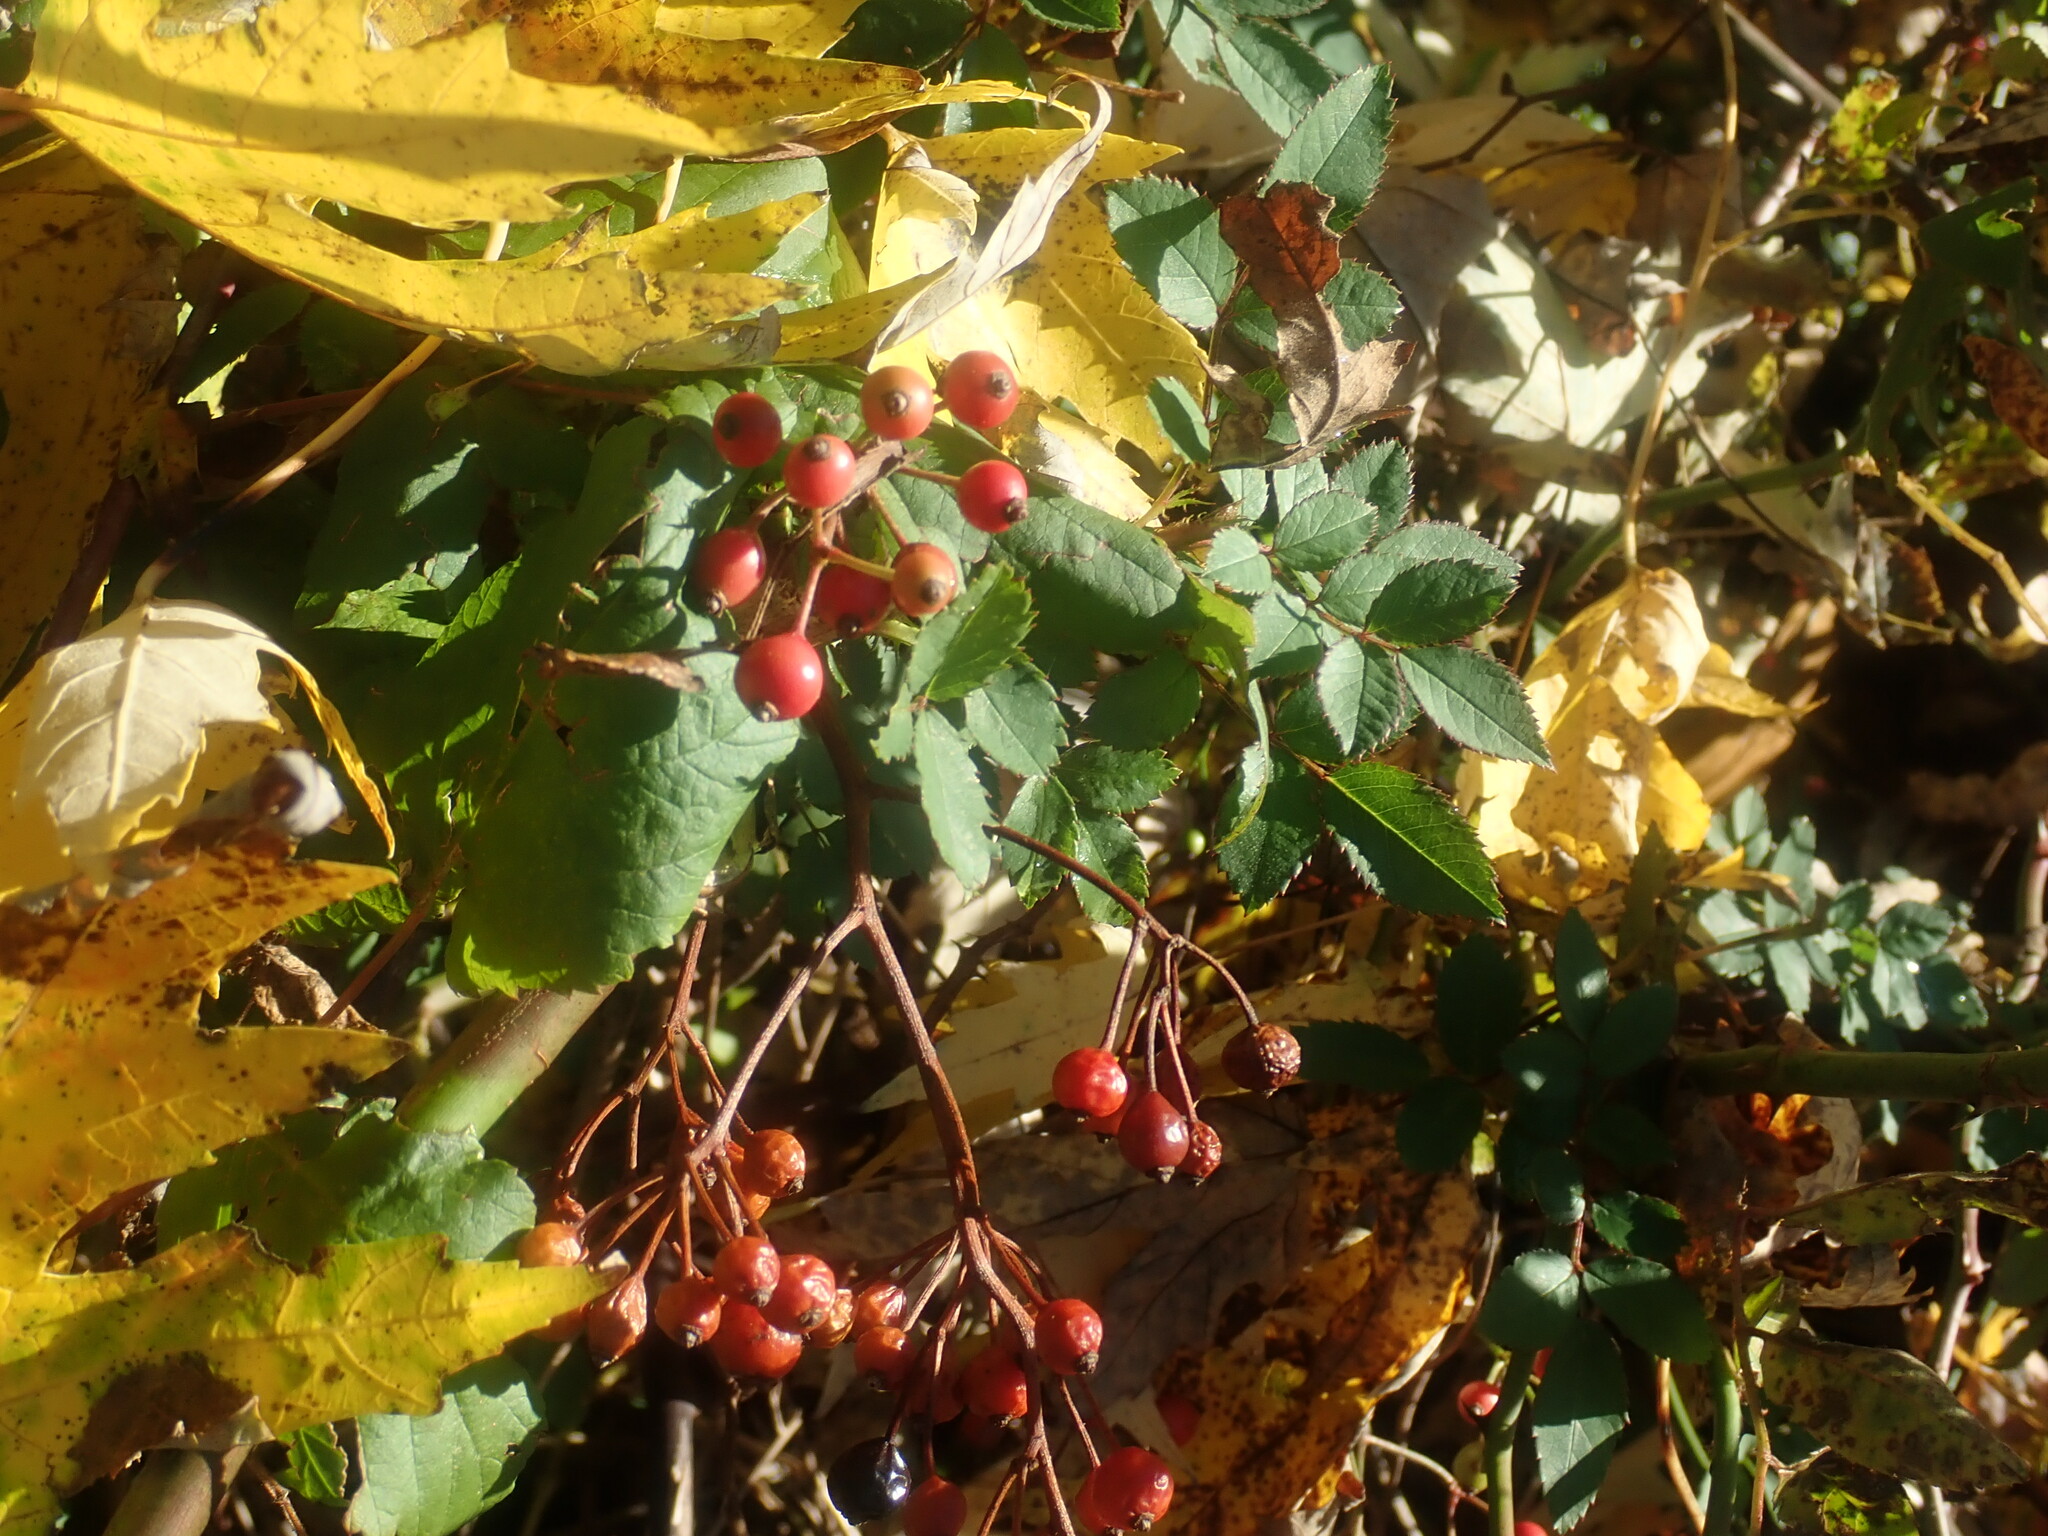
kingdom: Plantae
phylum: Tracheophyta
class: Magnoliopsida
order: Rosales
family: Rosaceae
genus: Rosa
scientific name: Rosa multiflora
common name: Multiflora rose
